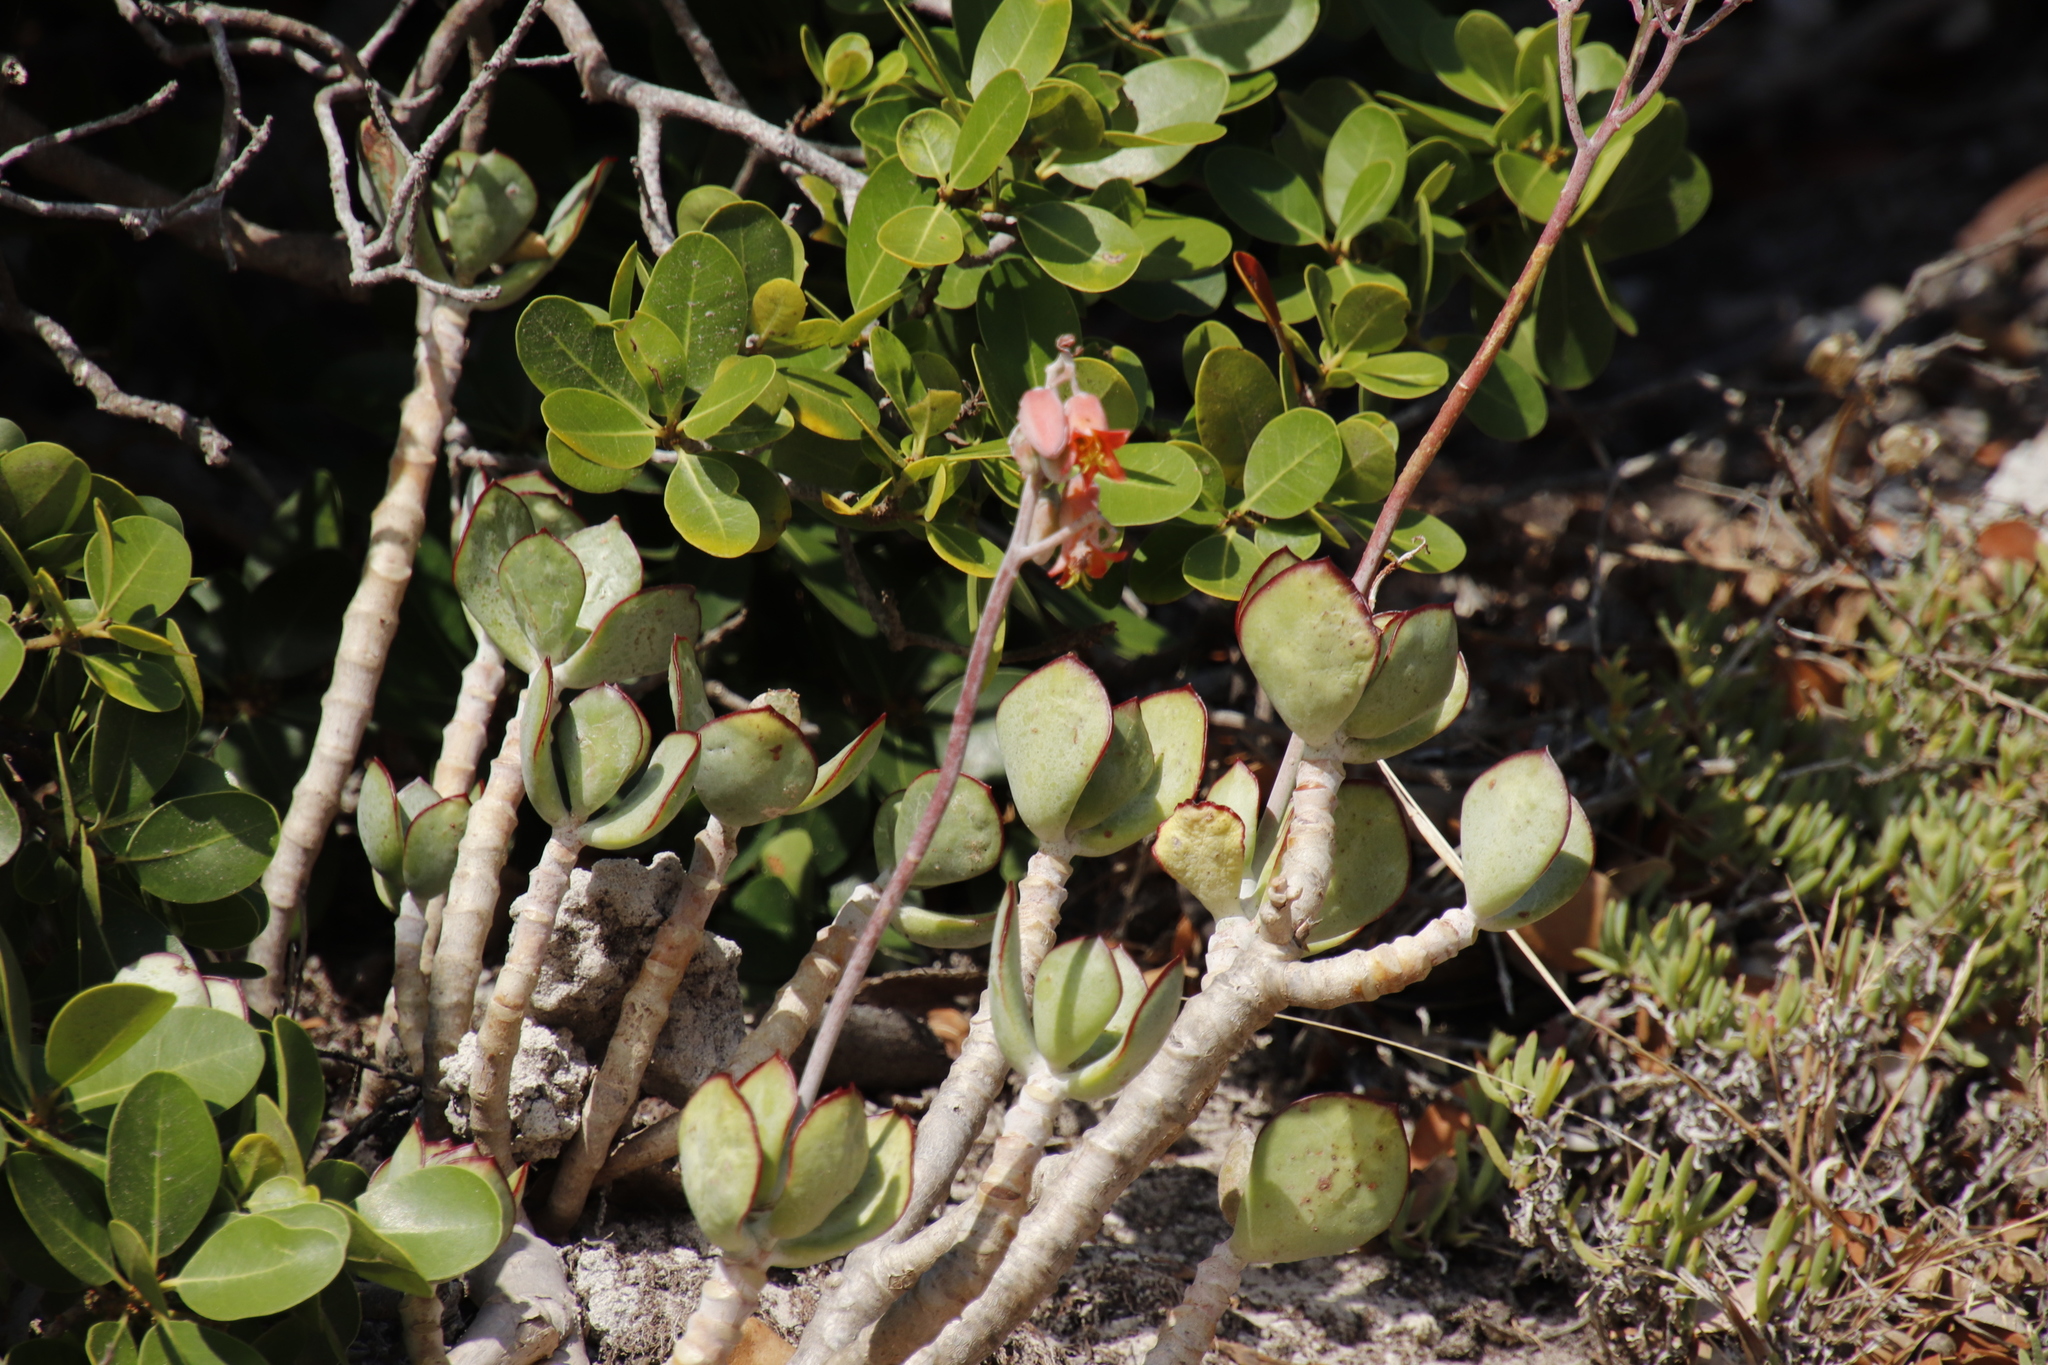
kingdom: Plantae
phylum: Tracheophyta
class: Magnoliopsida
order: Saxifragales
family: Crassulaceae
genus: Cotyledon
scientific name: Cotyledon orbiculata
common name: Pig's ear
